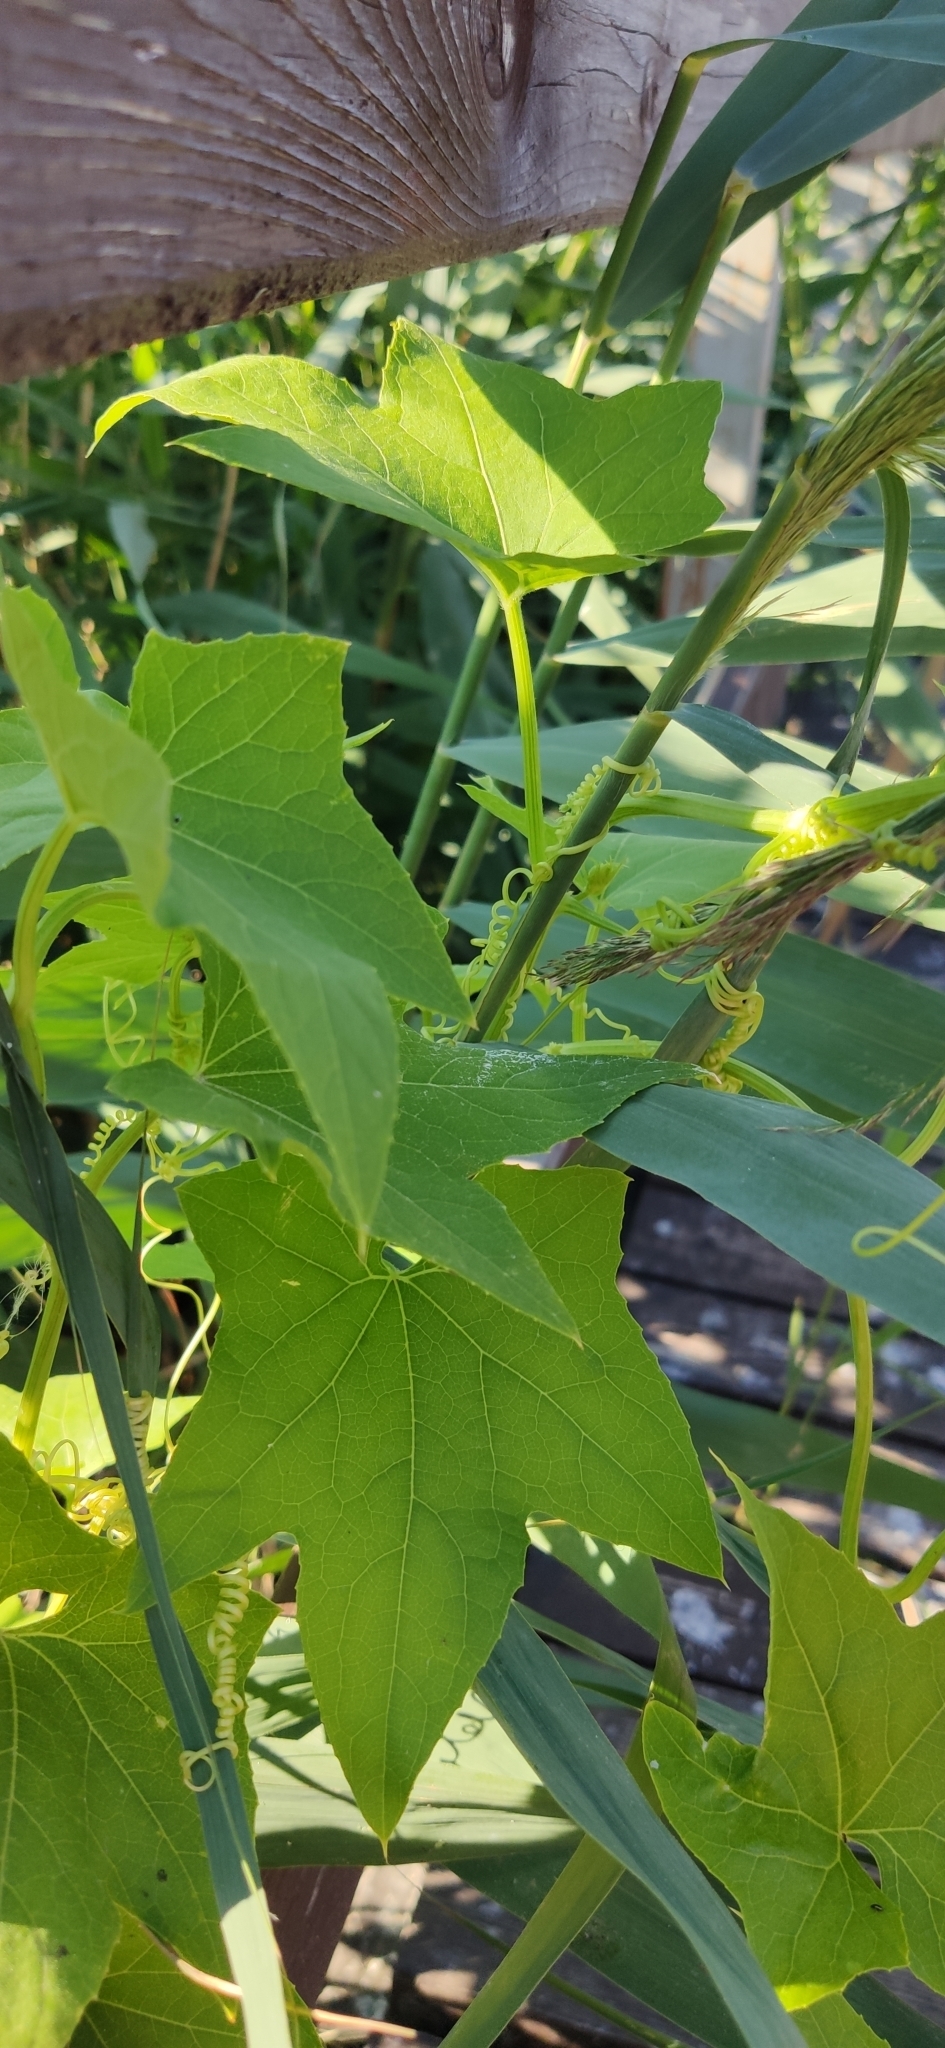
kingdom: Plantae
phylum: Tracheophyta
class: Magnoliopsida
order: Cucurbitales
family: Cucurbitaceae
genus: Echinocystis
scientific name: Echinocystis lobata
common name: Wild cucumber
